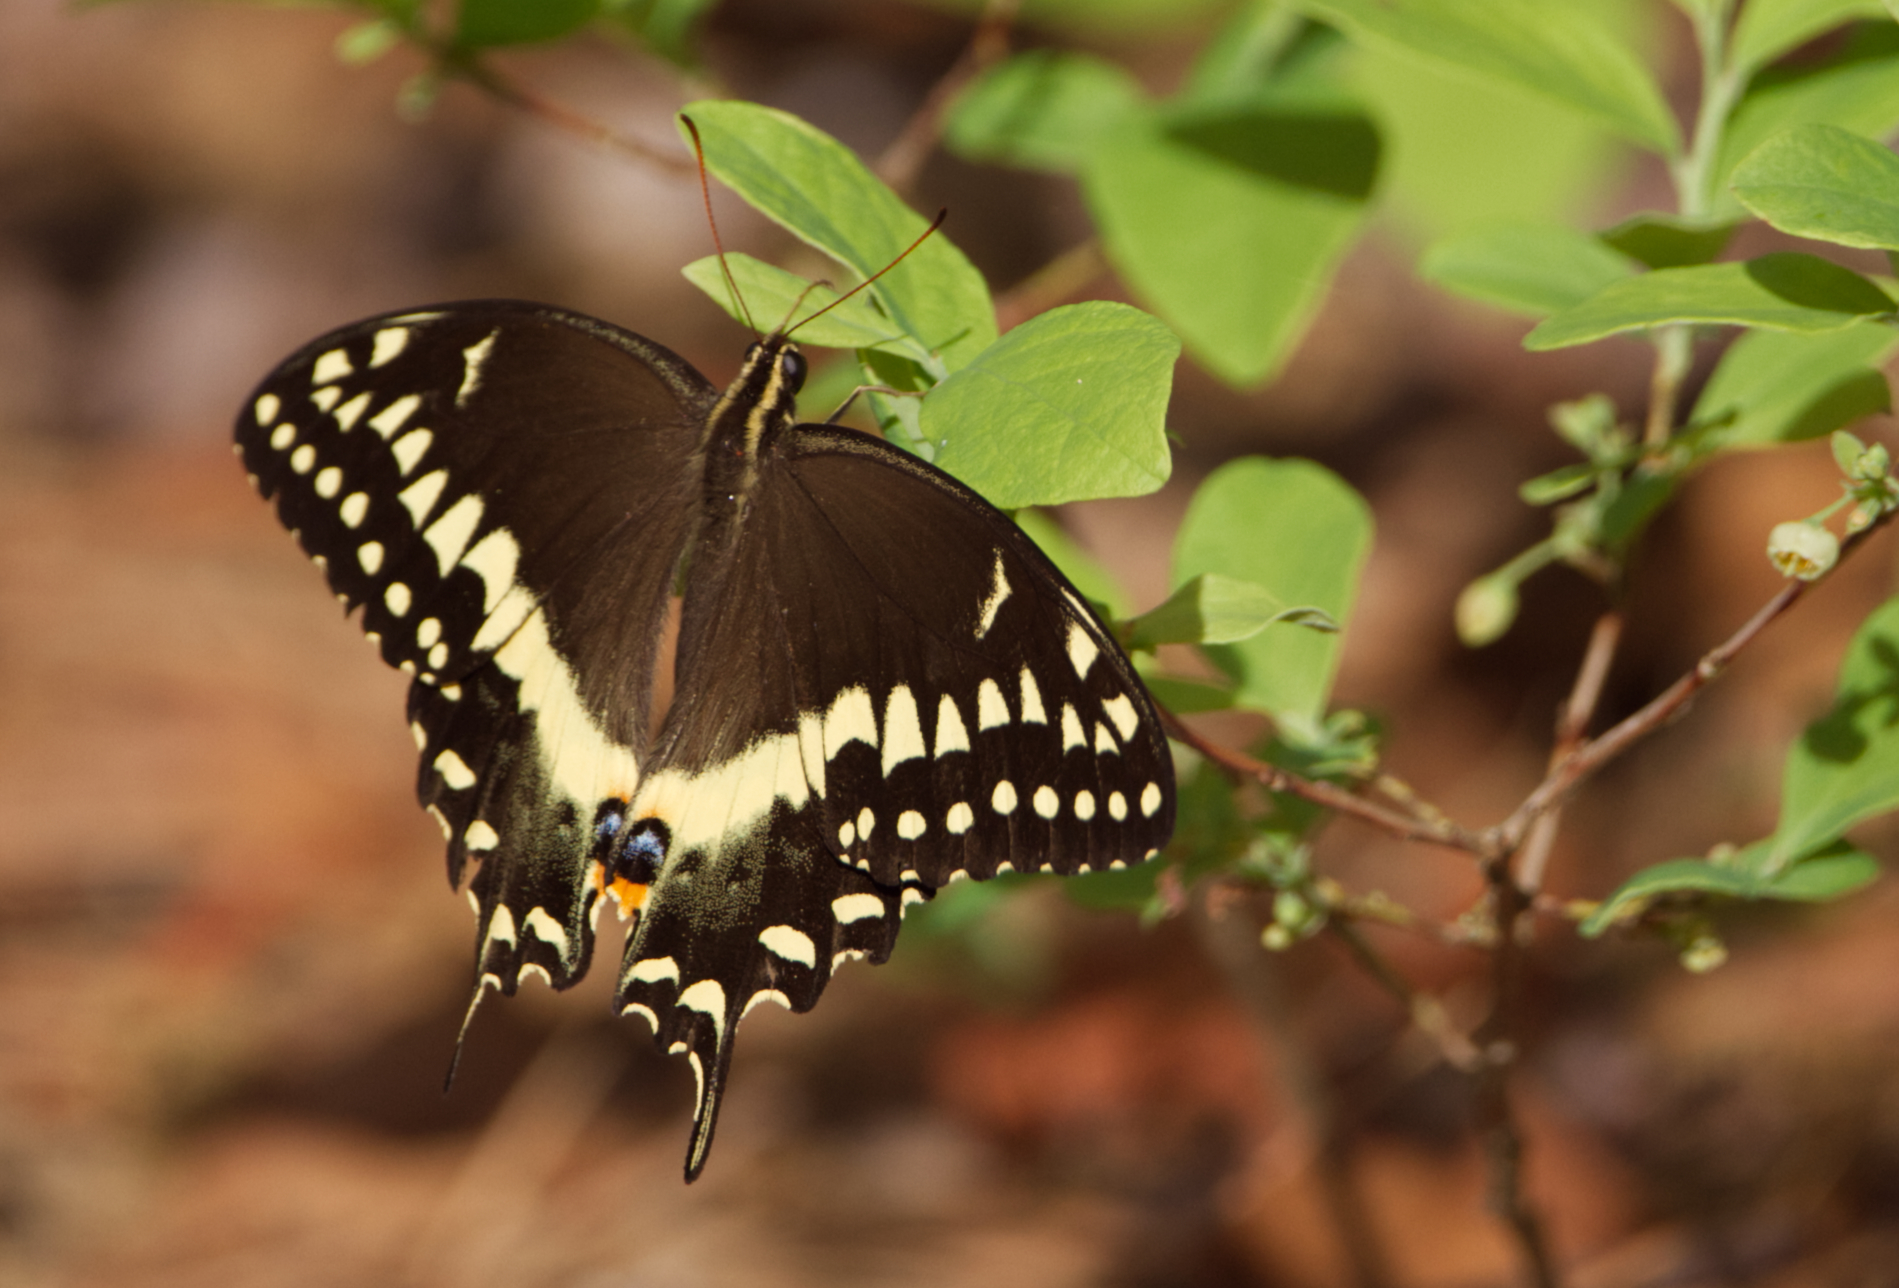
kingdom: Animalia
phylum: Arthropoda
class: Insecta
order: Lepidoptera
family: Papilionidae
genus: Papilio
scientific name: Papilio palamedes
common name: Palamedes swallowtail
